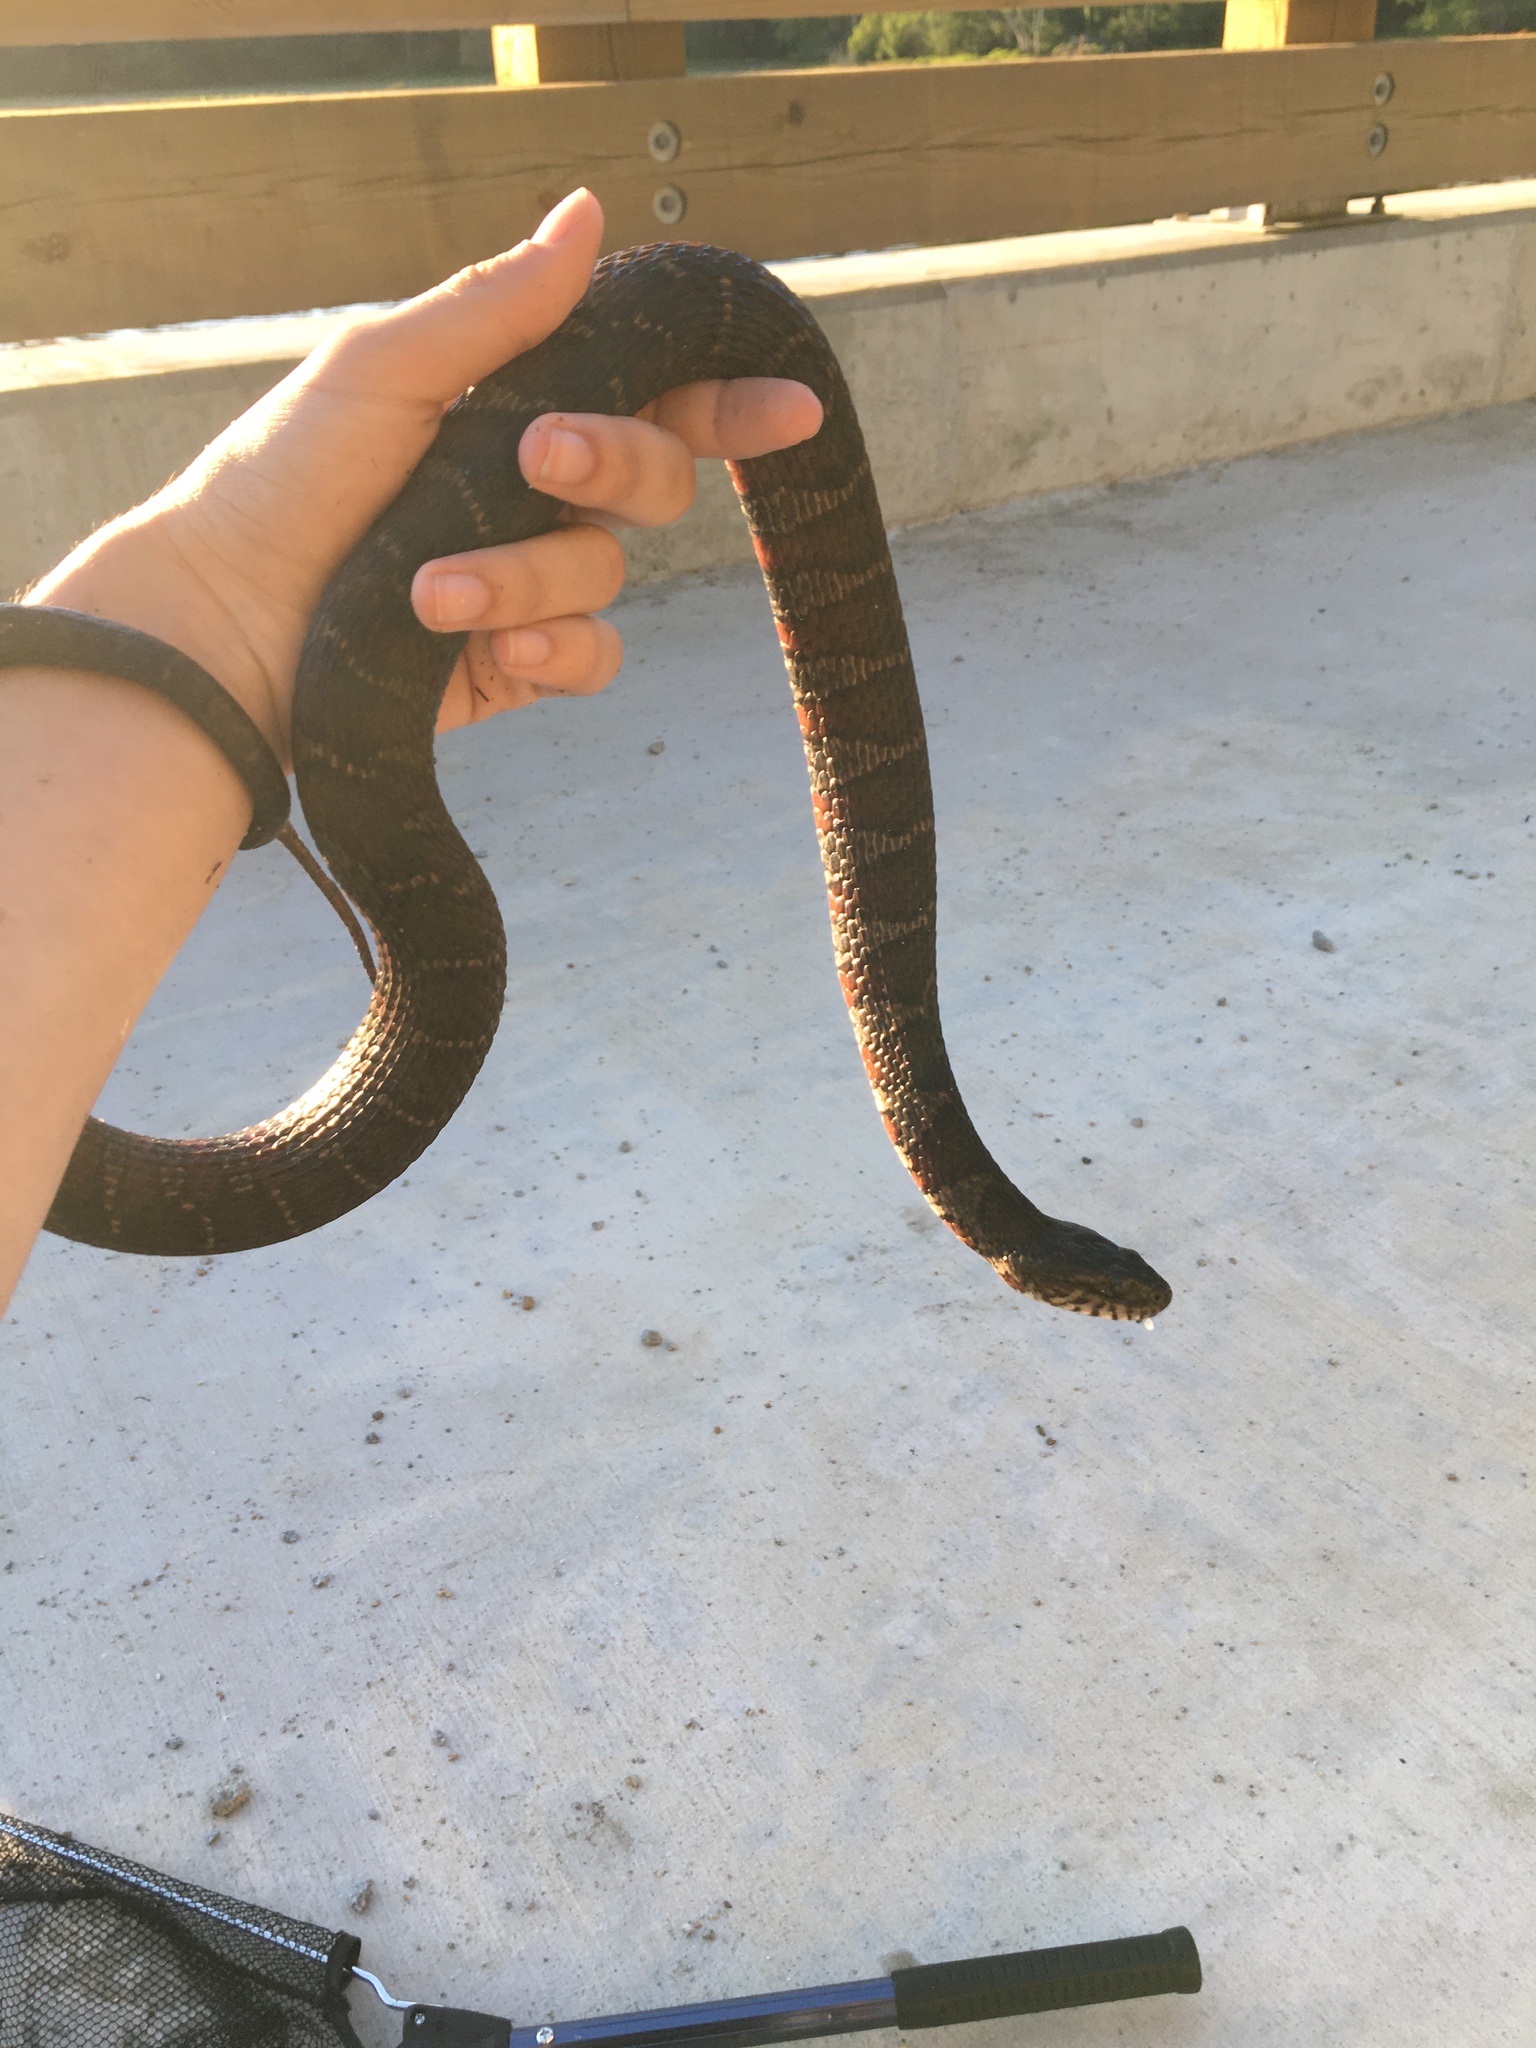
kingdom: Animalia
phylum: Chordata
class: Squamata
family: Colubridae
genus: Nerodia
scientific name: Nerodia sipedon
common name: Northern water snake
